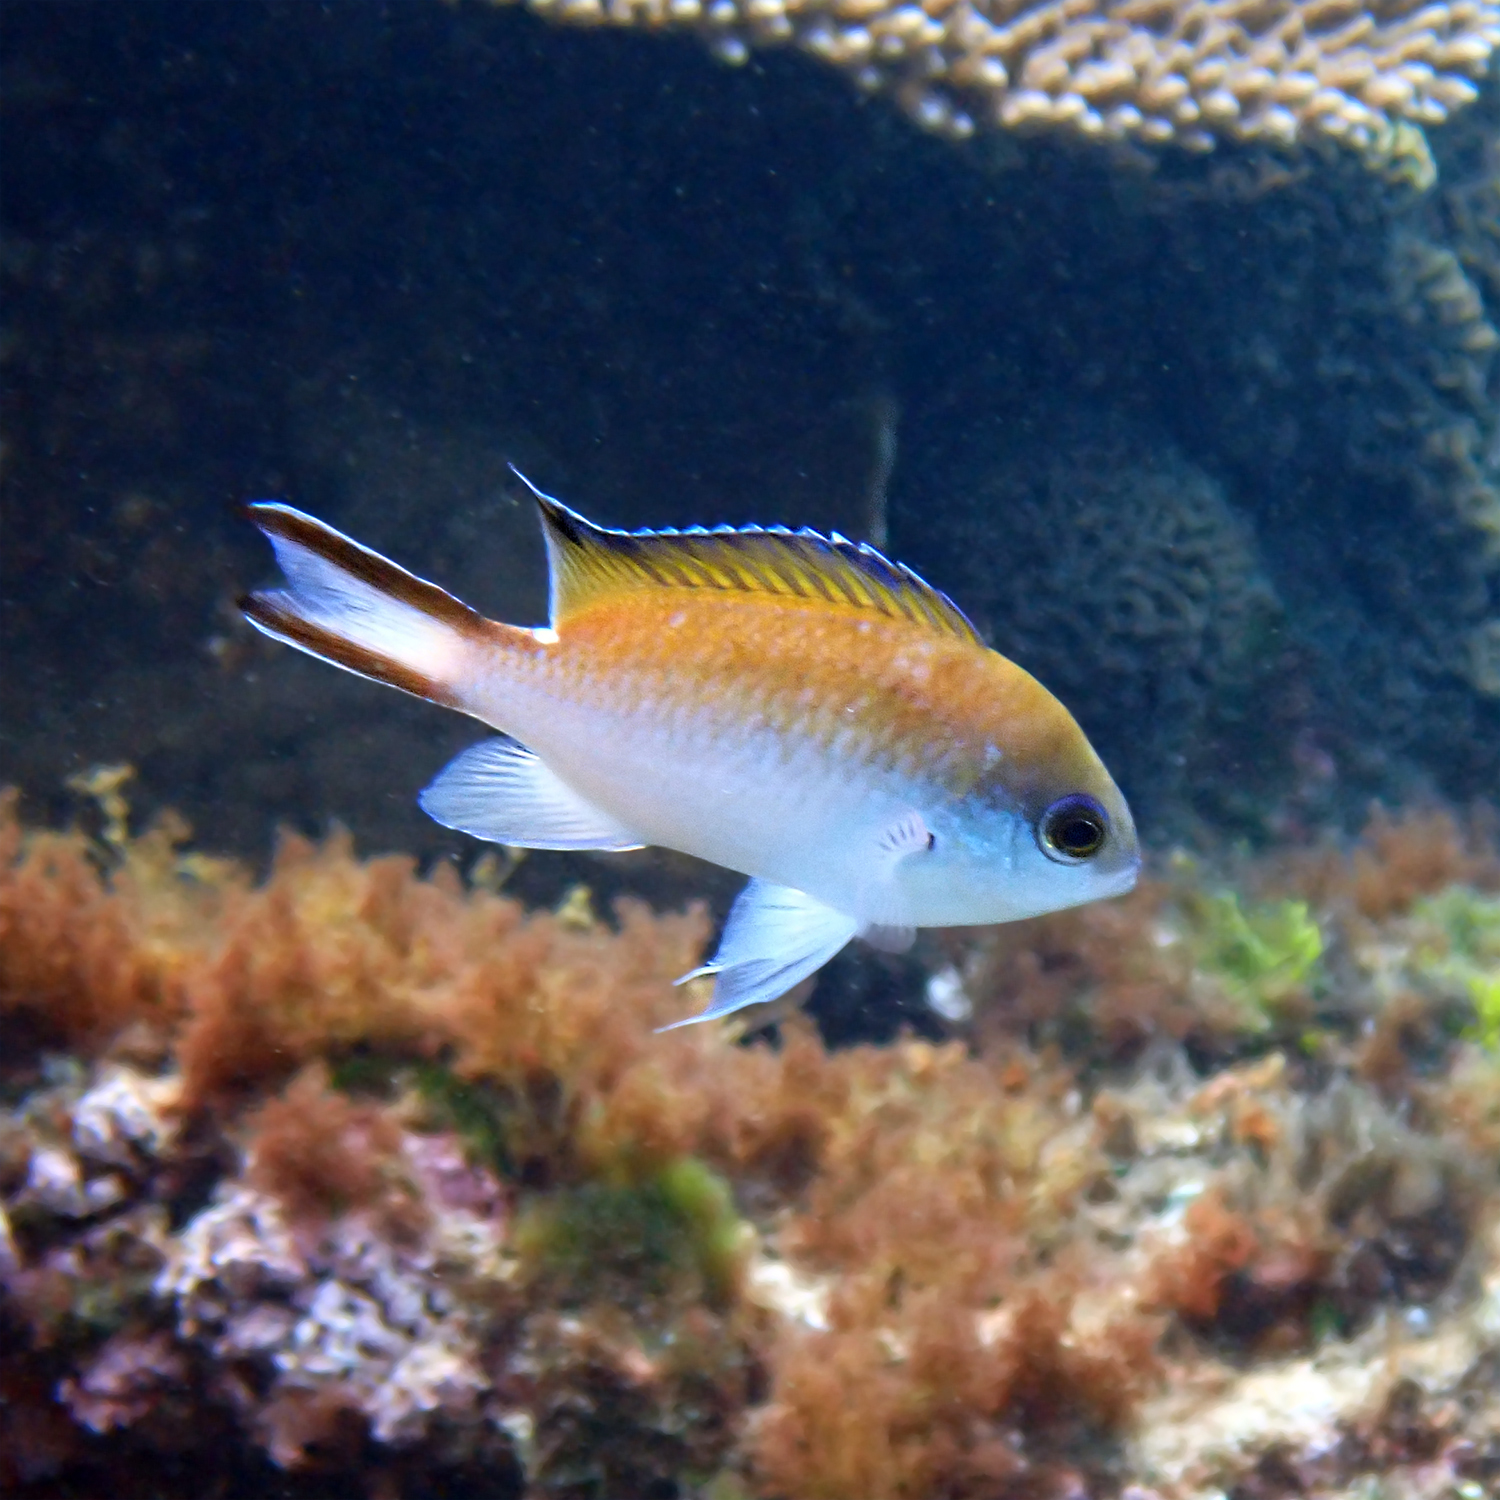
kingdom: Animalia
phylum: Chordata
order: Perciformes
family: Pomacentridae
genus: Chromis
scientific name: Chromis norfolkensis
